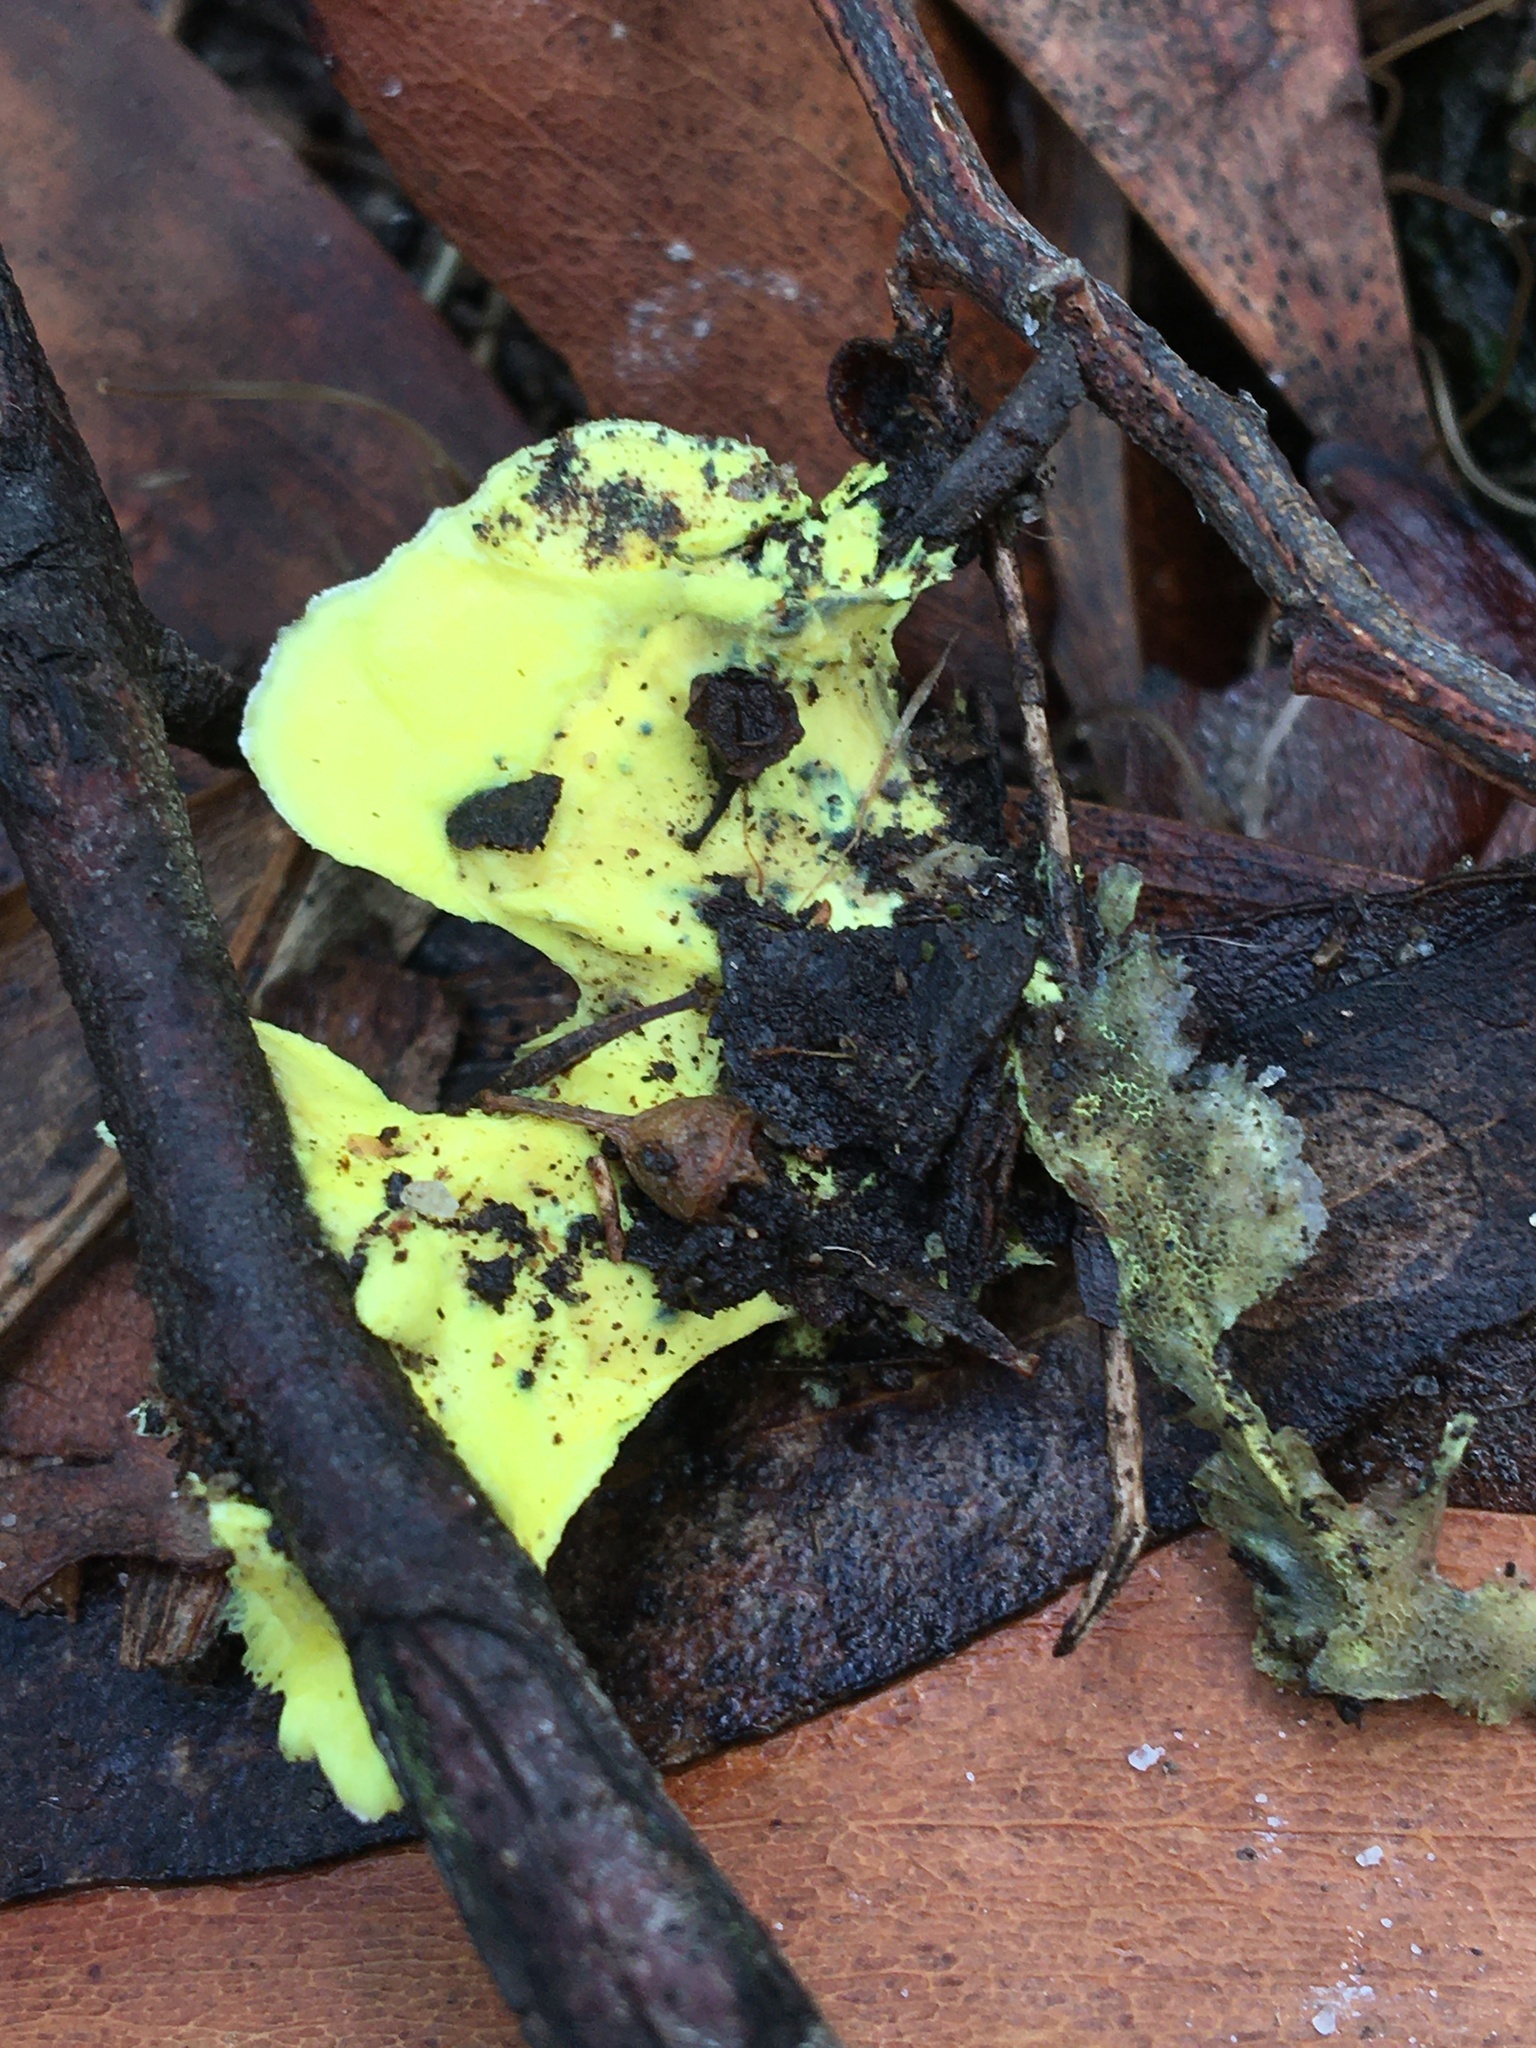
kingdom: Fungi
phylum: Basidiomycota
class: Agaricomycetes
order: Polyporales
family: Steccherinaceae
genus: Austeria
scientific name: Austeria citrea
